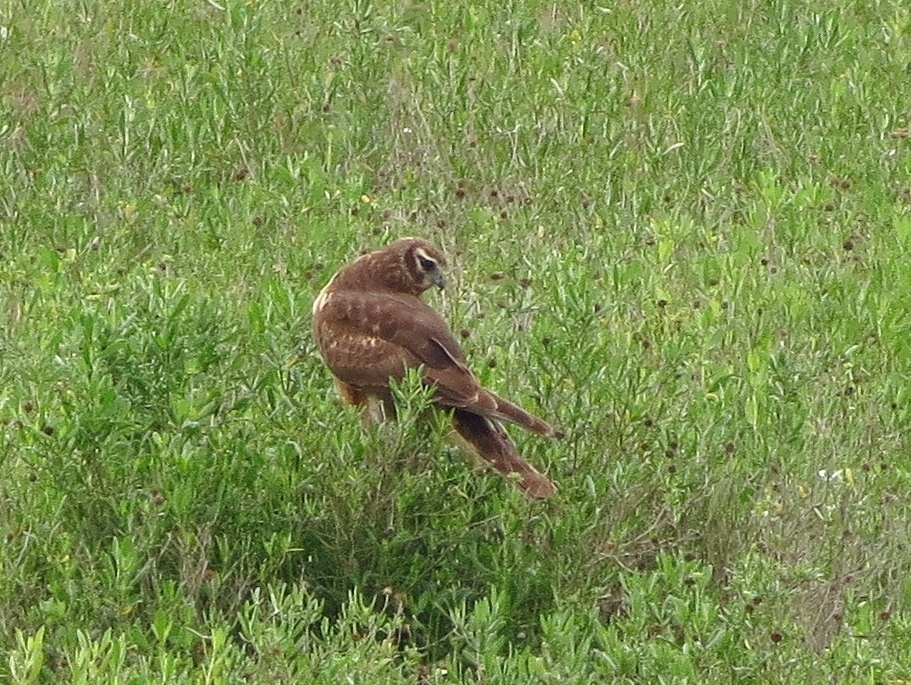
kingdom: Animalia
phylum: Chordata
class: Aves
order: Accipitriformes
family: Accipitridae
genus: Circus
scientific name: Circus cyaneus
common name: Hen harrier
